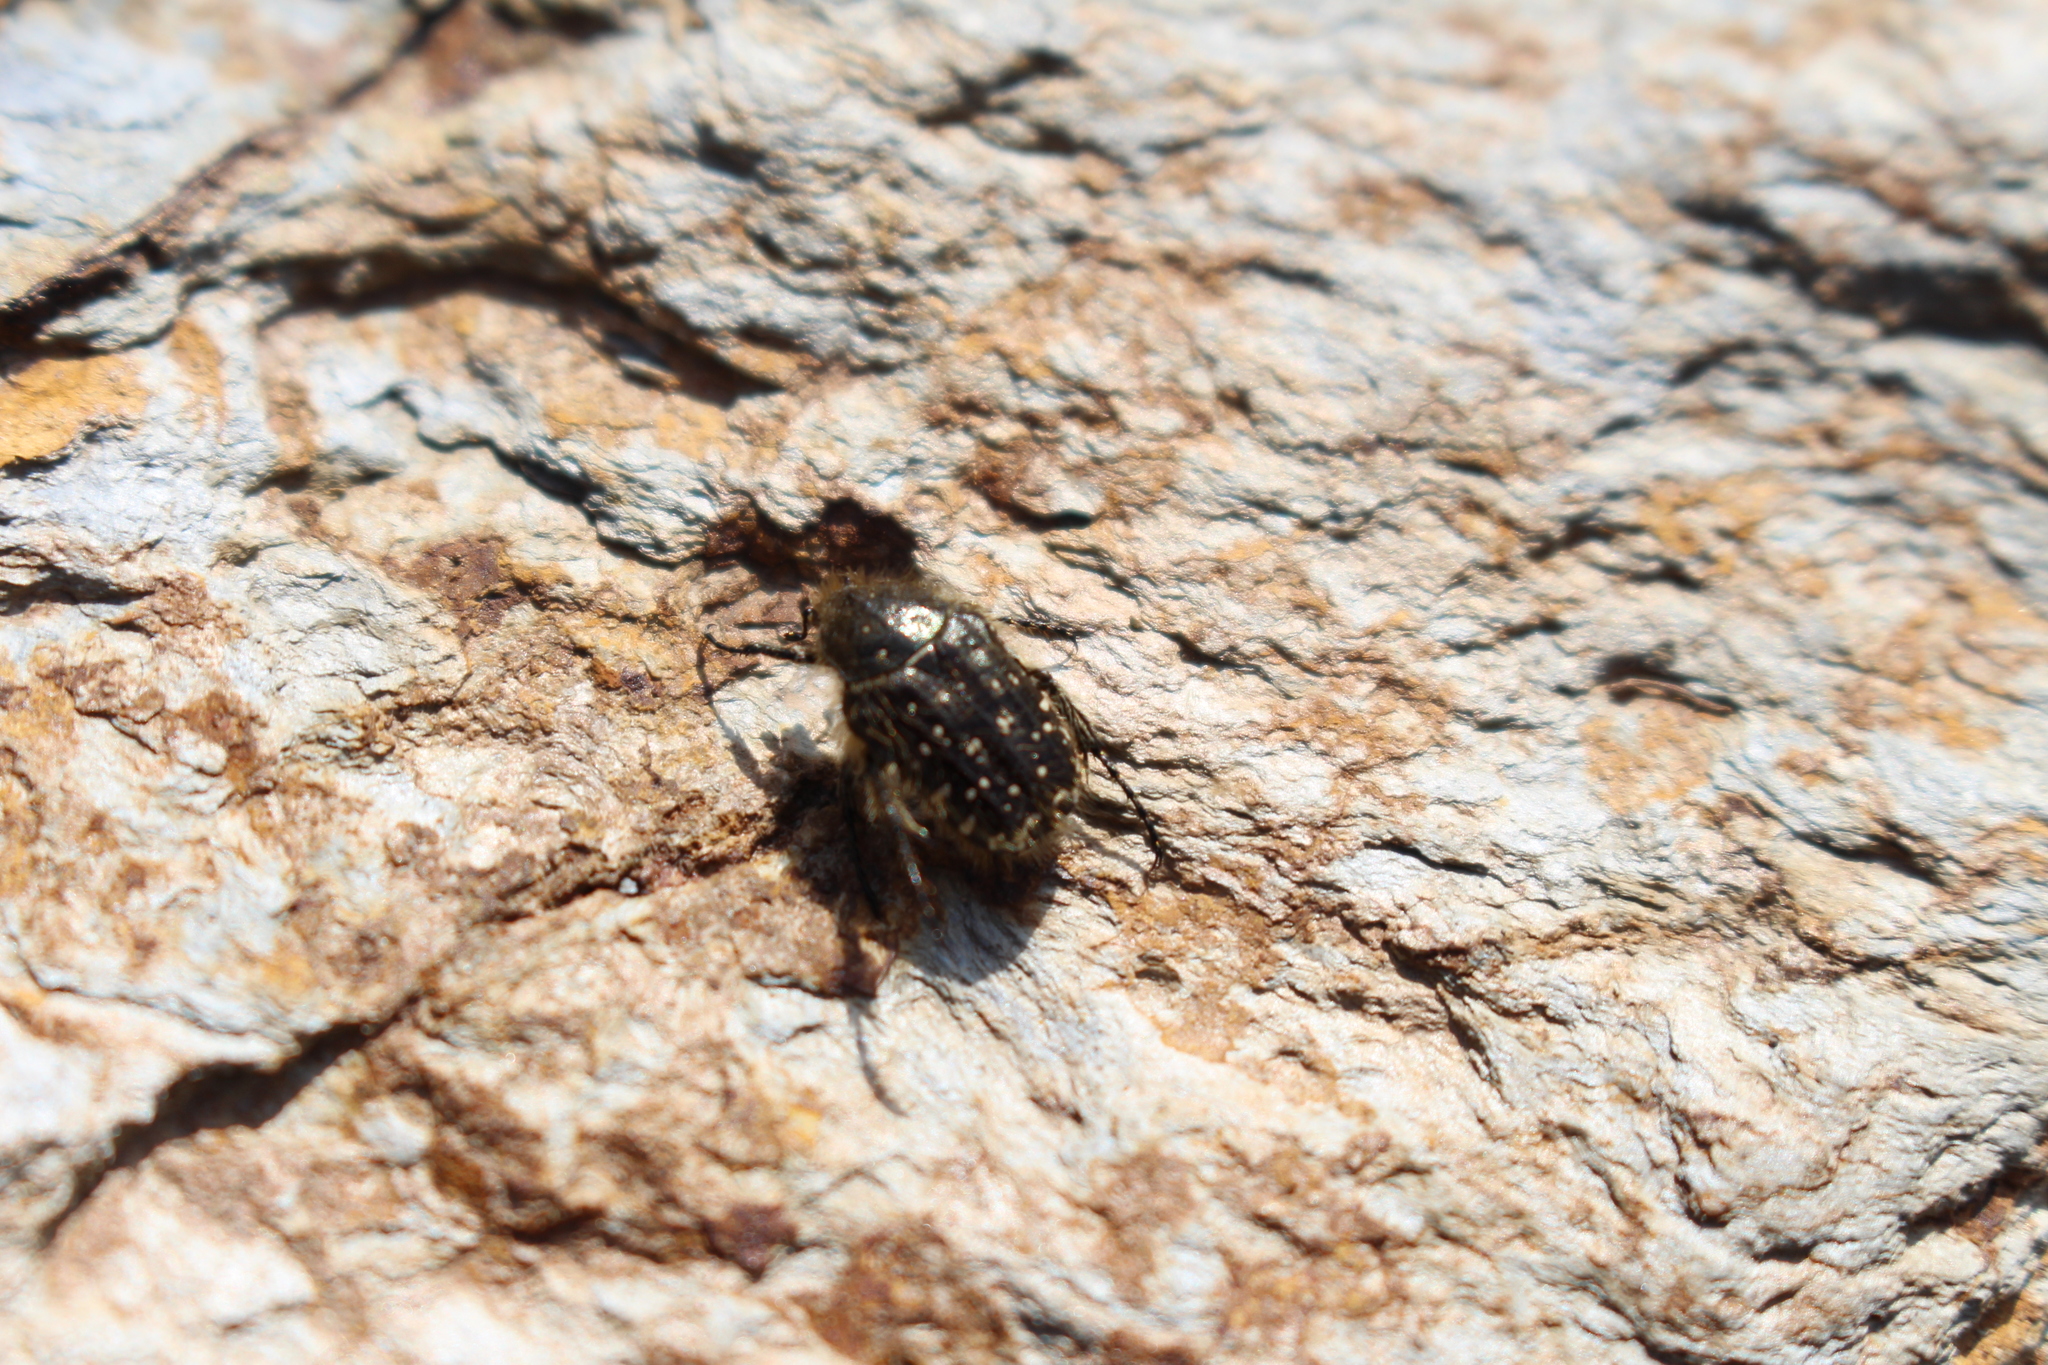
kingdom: Animalia
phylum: Arthropoda
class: Insecta
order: Coleoptera
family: Scarabaeidae
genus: Oxythyrea
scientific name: Oxythyrea funesta
